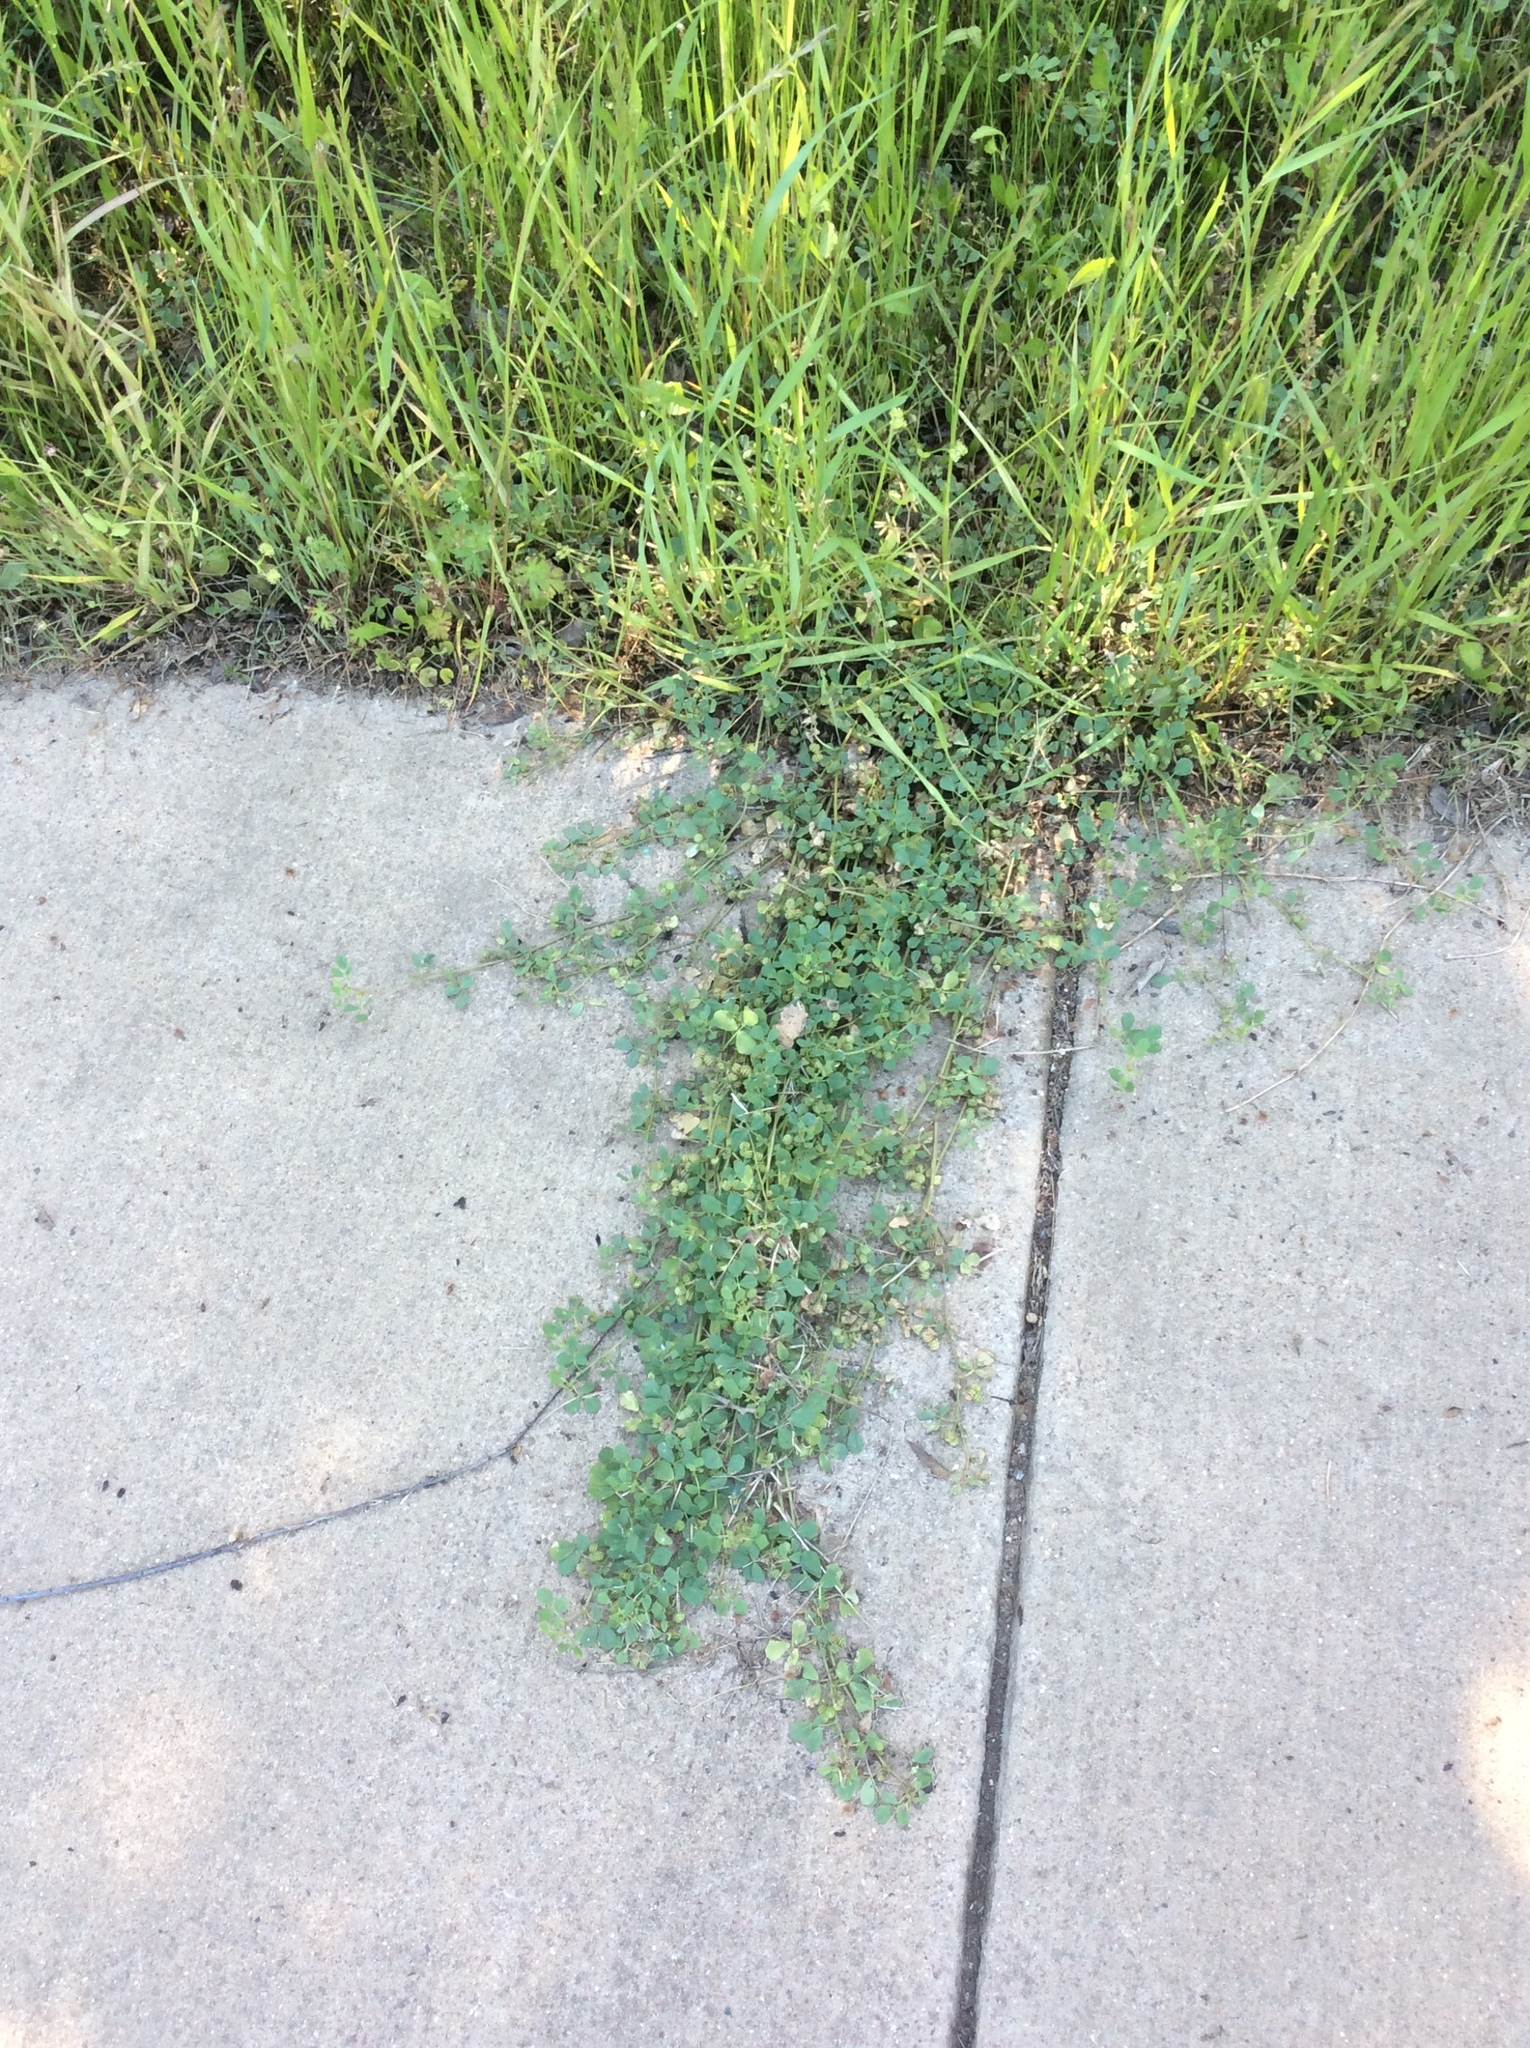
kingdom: Plantae
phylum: Tracheophyta
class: Magnoliopsida
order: Fabales
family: Fabaceae
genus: Medicago
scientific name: Medicago polymorpha
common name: Burclover
